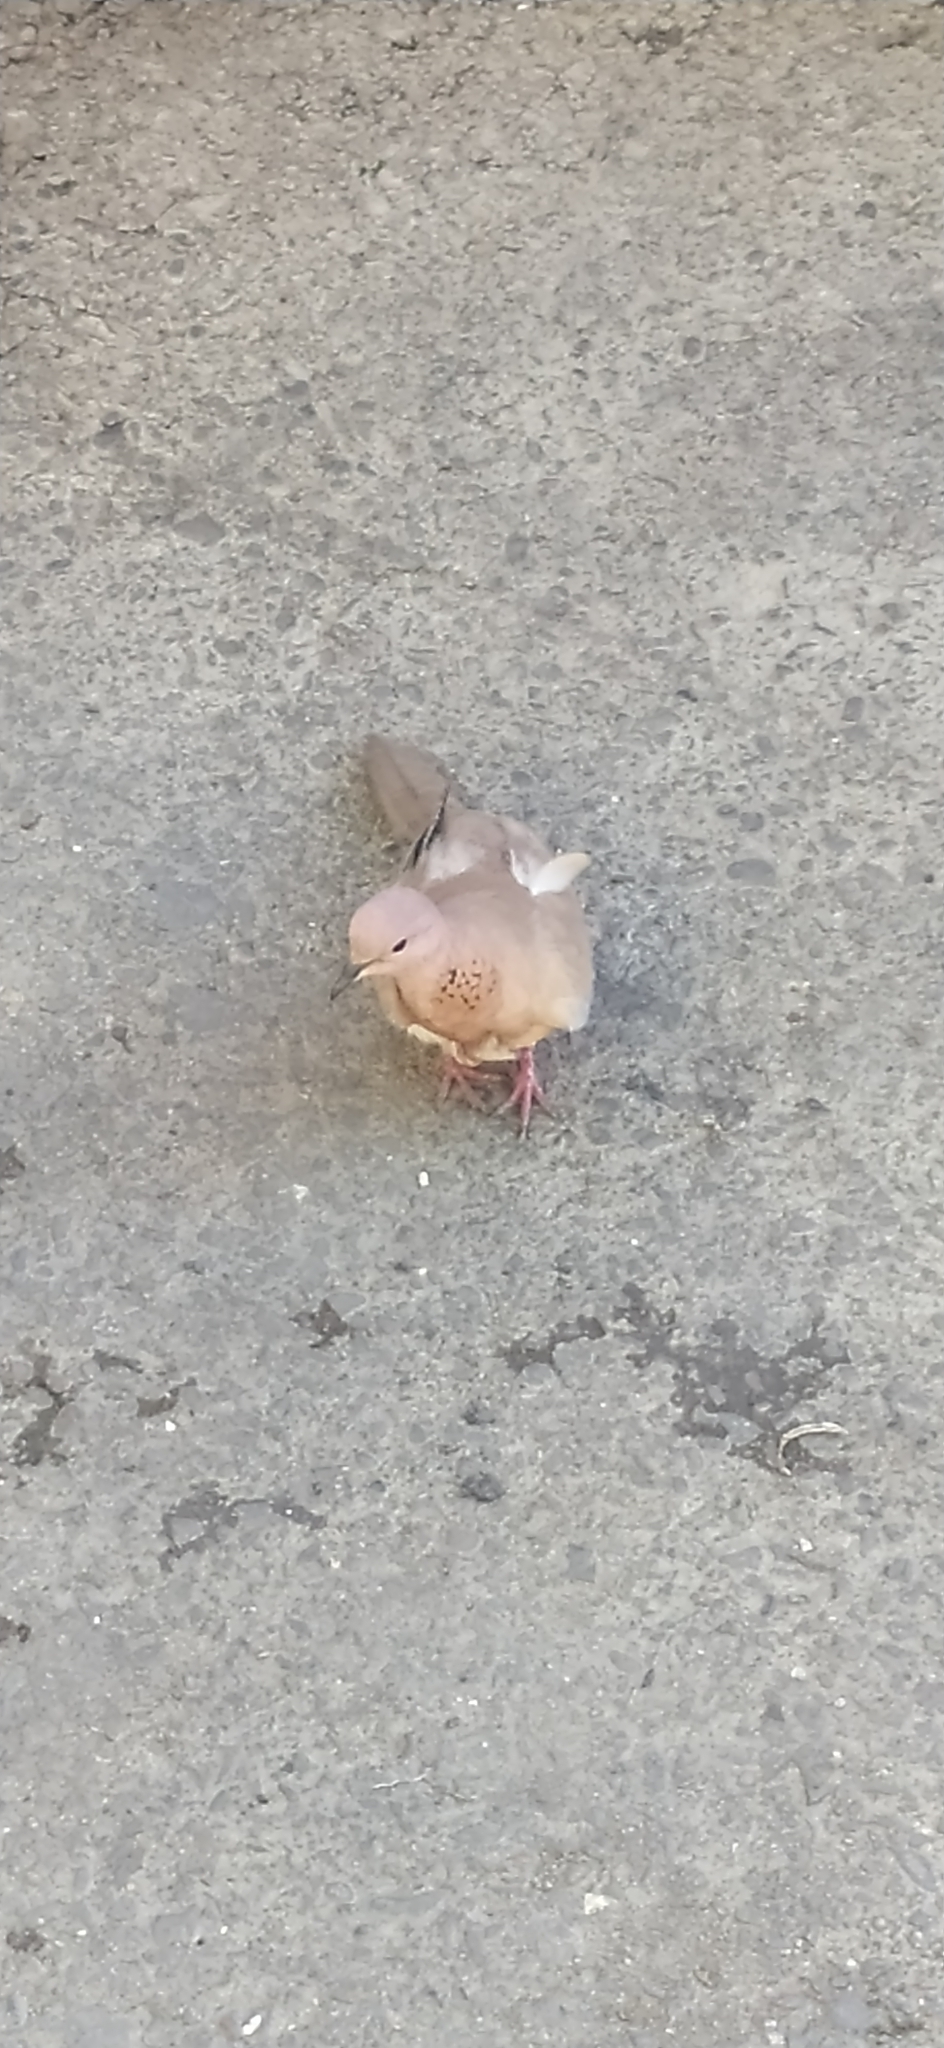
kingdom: Animalia
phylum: Chordata
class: Aves
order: Columbiformes
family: Columbidae
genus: Spilopelia
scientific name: Spilopelia senegalensis
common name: Laughing dove
